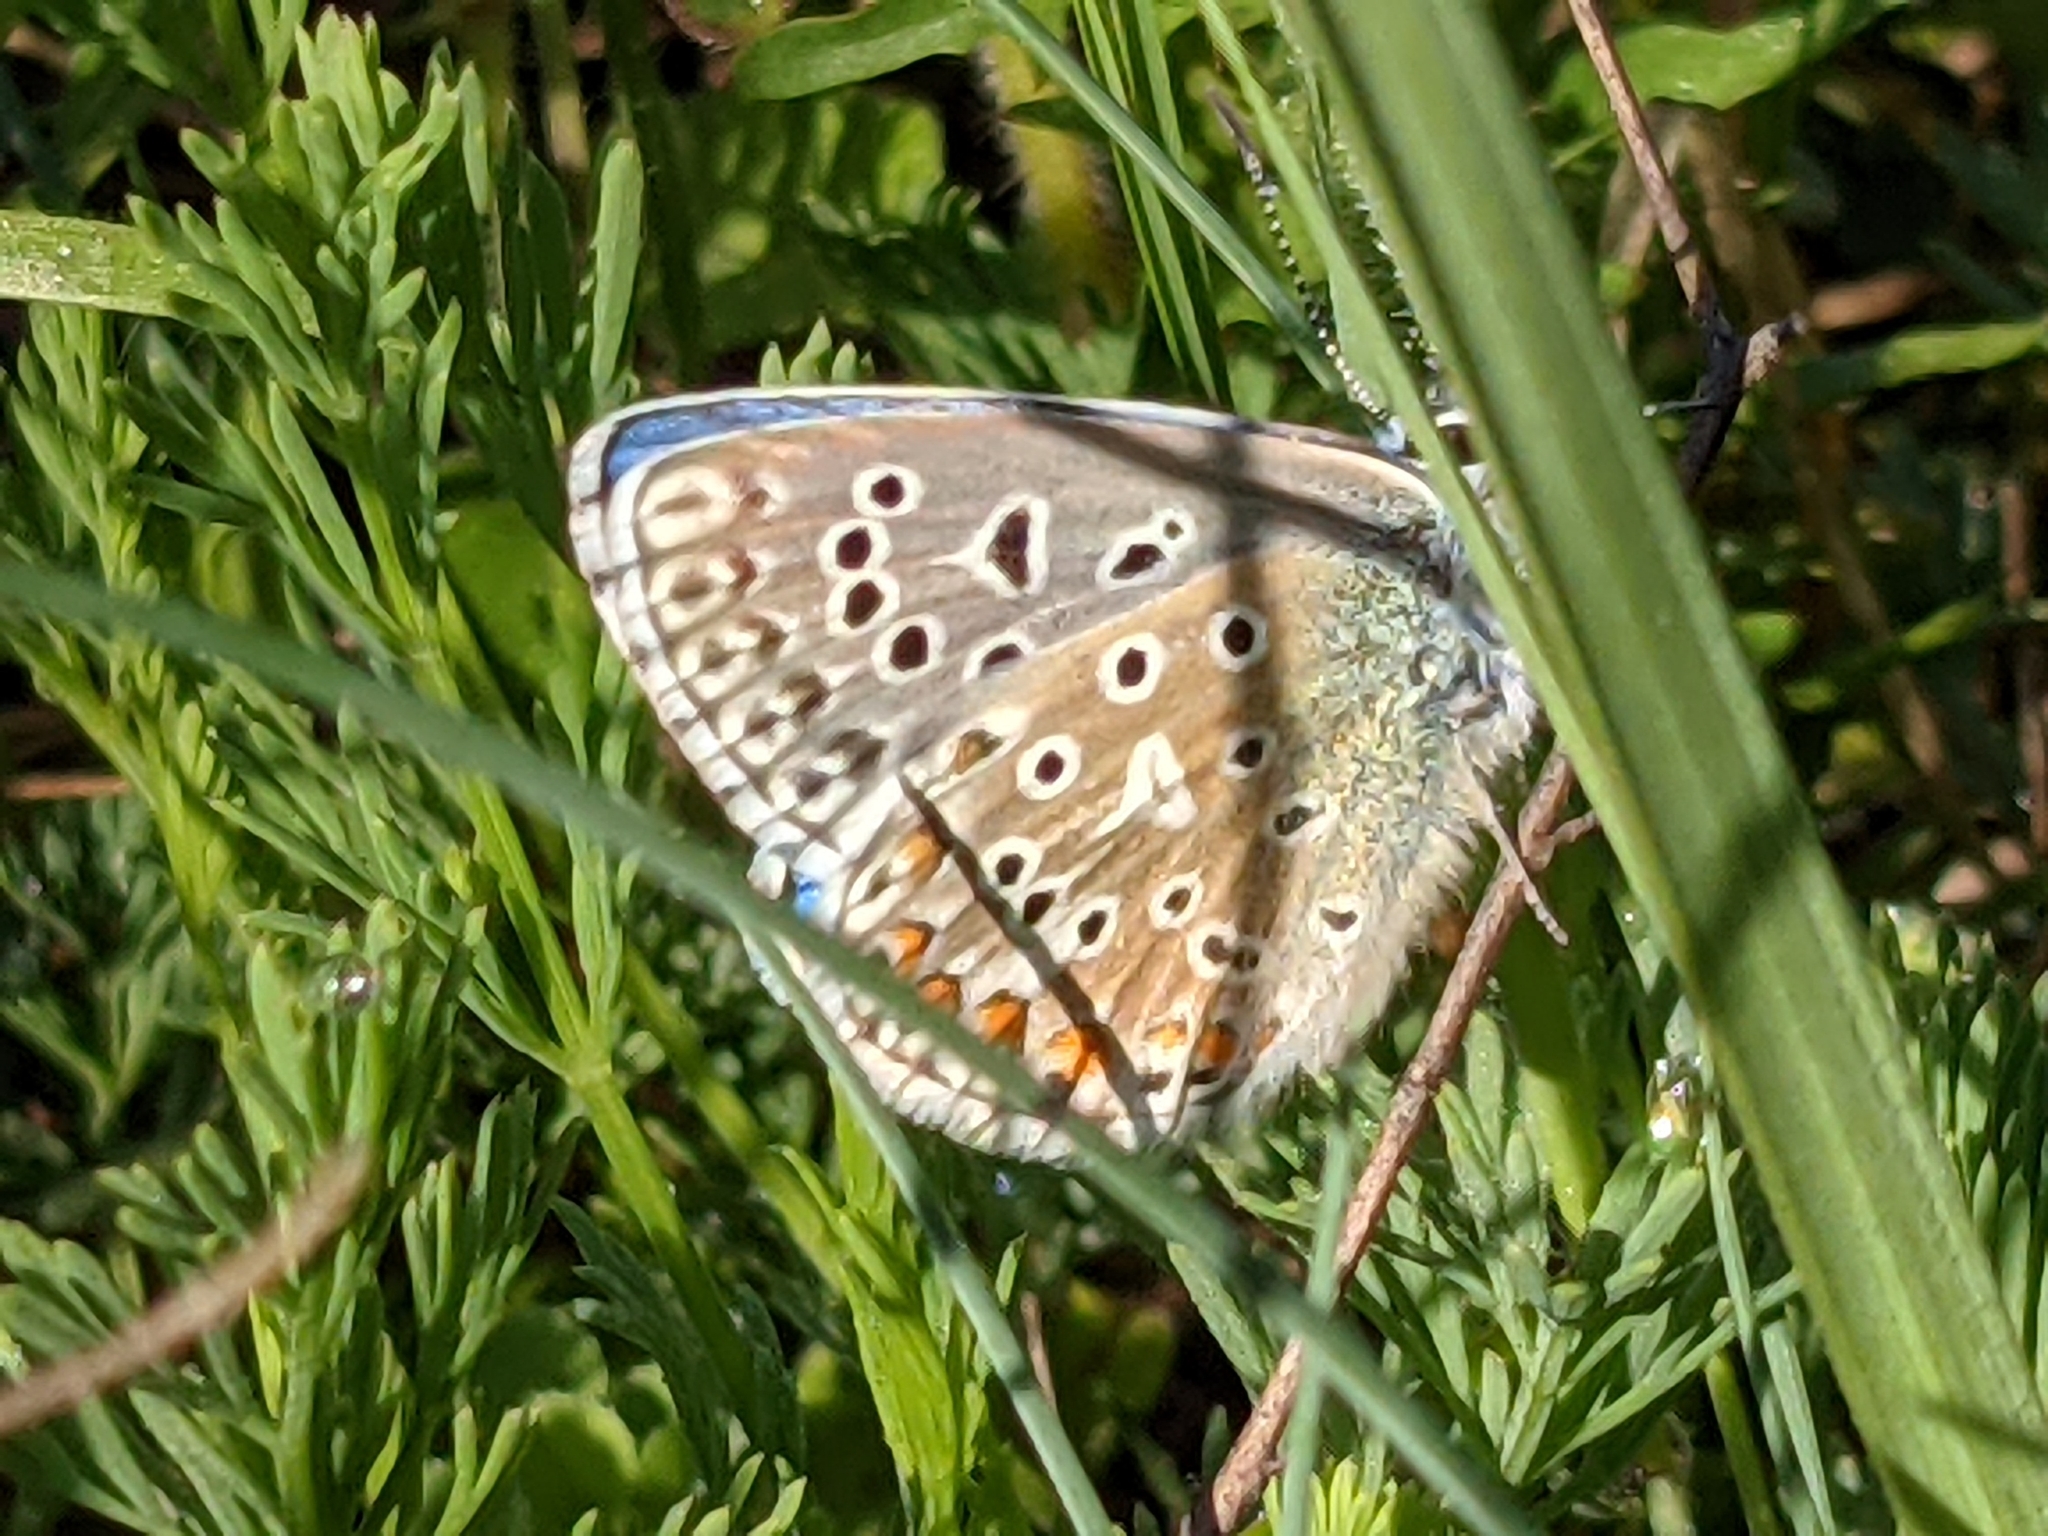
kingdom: Animalia
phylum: Arthropoda
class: Insecta
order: Lepidoptera
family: Lycaenidae
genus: Lysandra
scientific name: Lysandra bellargus
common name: Adonis blue
